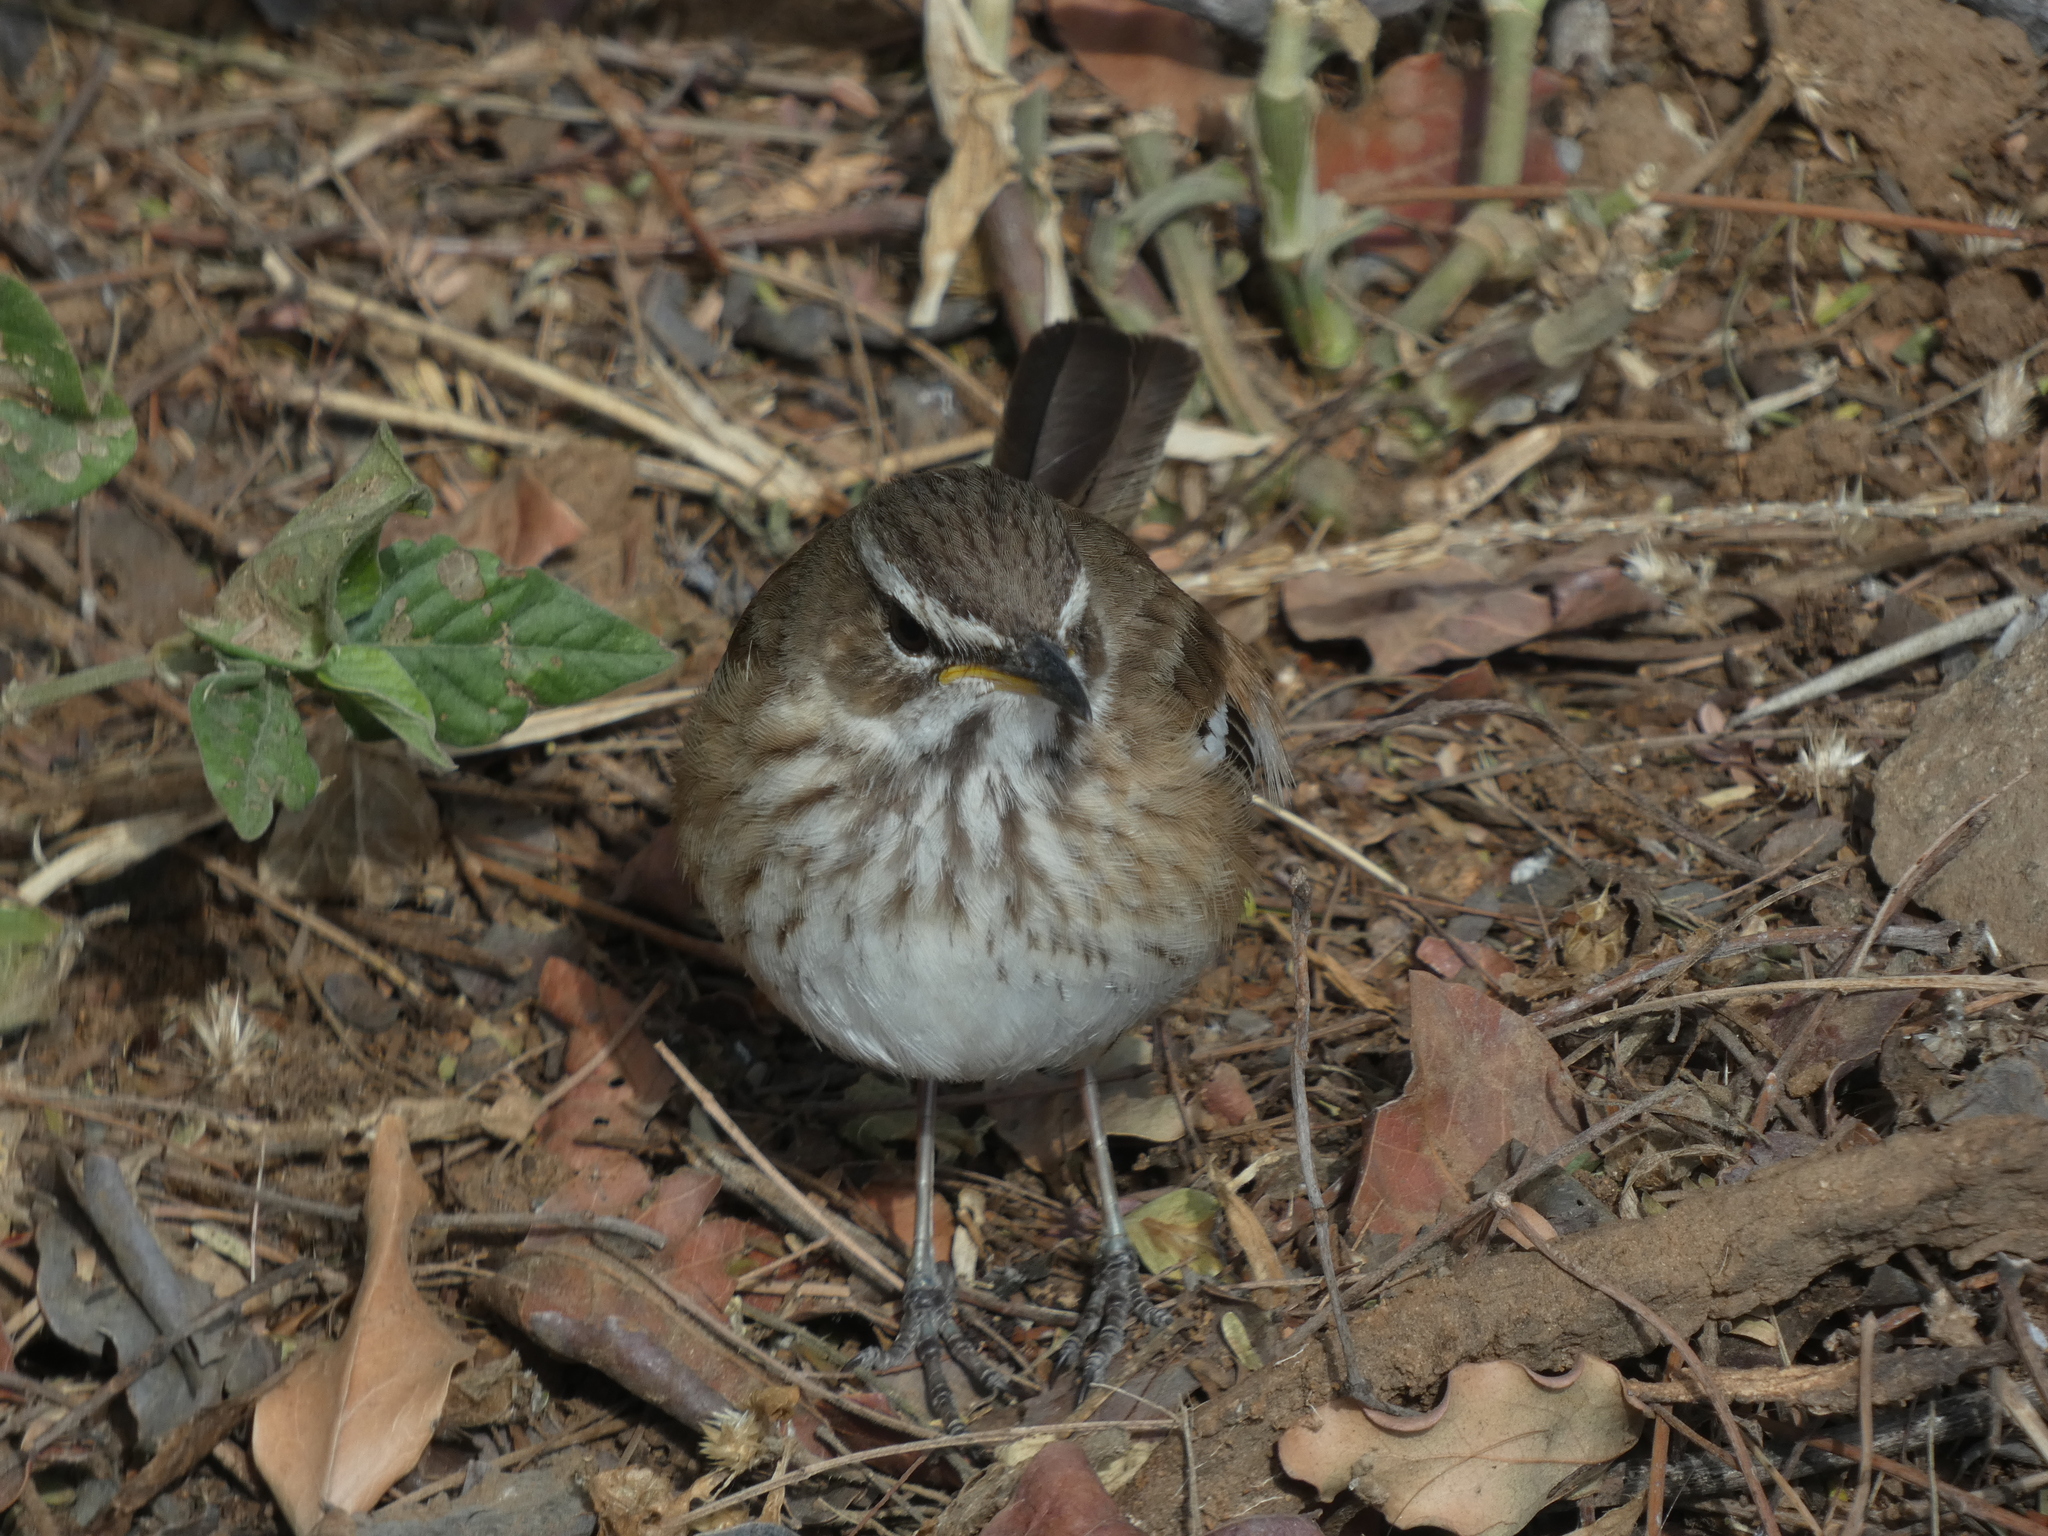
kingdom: Animalia
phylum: Chordata
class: Aves
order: Passeriformes
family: Muscicapidae
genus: Erythropygia
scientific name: Erythropygia leucophrys
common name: White-browed scrub robin
